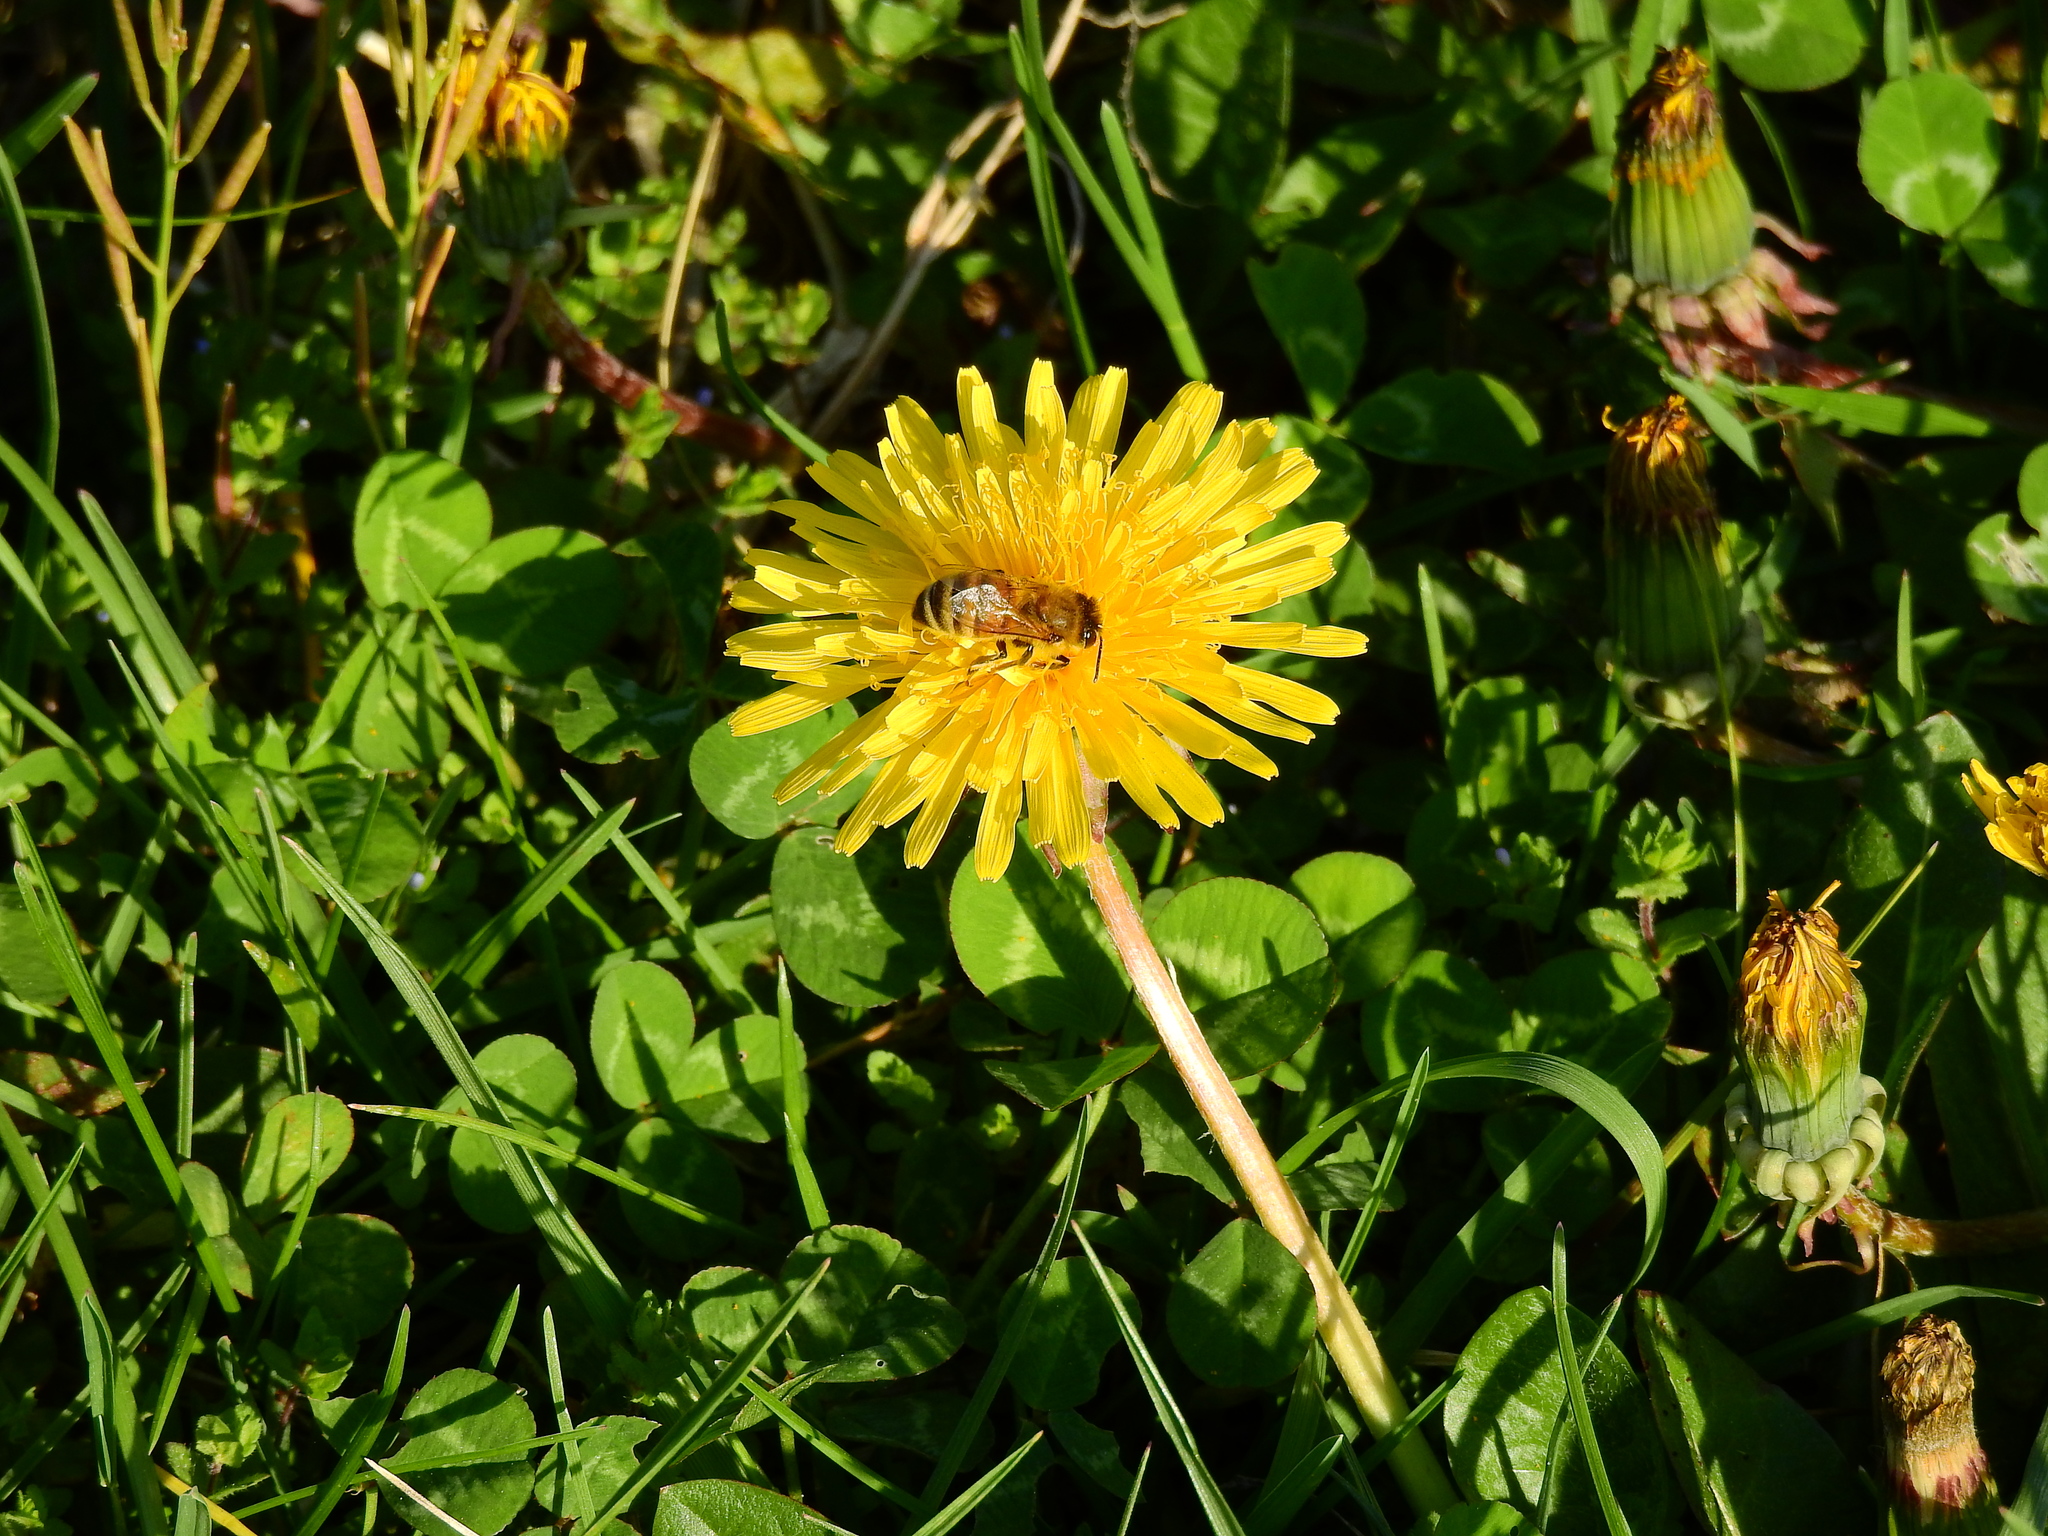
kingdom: Animalia
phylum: Arthropoda
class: Insecta
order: Hymenoptera
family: Apidae
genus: Apis
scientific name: Apis mellifera
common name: Honey bee
